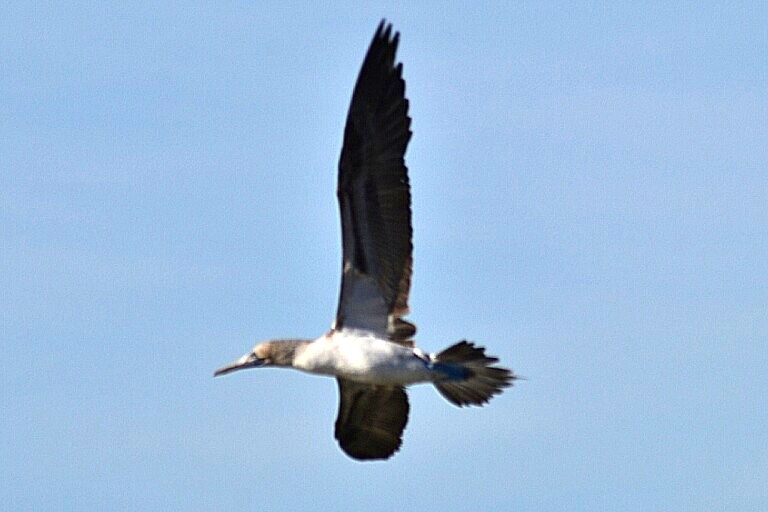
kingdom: Animalia
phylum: Chordata
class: Aves
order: Suliformes
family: Sulidae
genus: Sula
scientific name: Sula nebouxii
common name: Blue-footed booby
